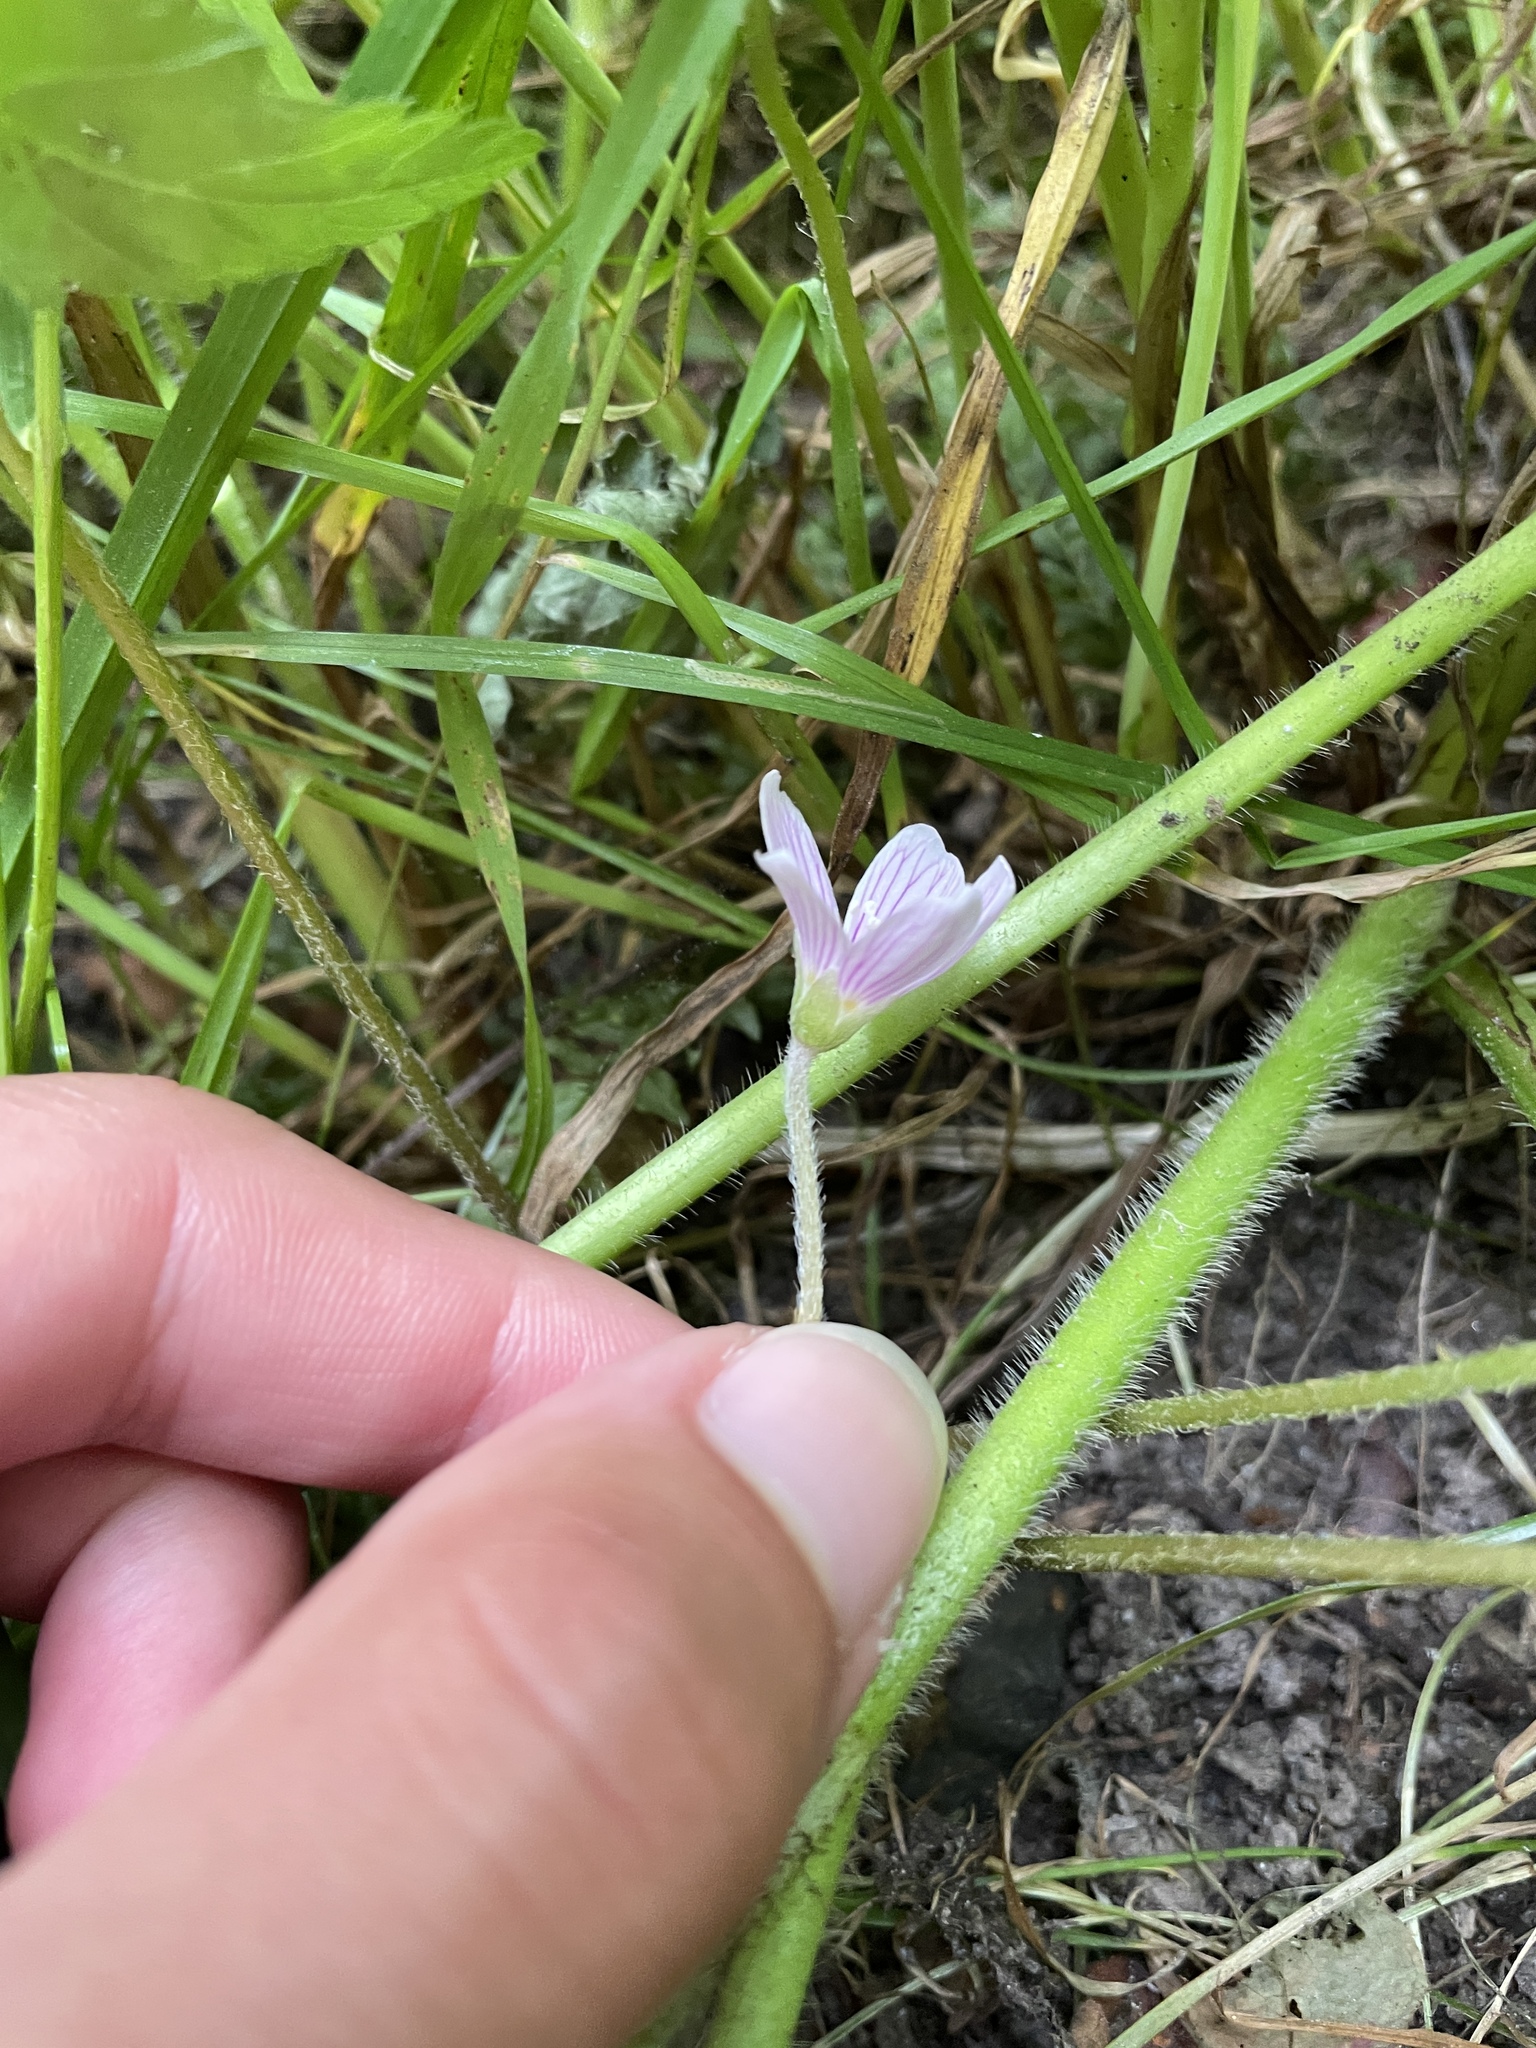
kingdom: Plantae
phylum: Tracheophyta
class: Magnoliopsida
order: Oxalidales
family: Oxalidaceae
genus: Oxalis
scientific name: Oxalis oregana
